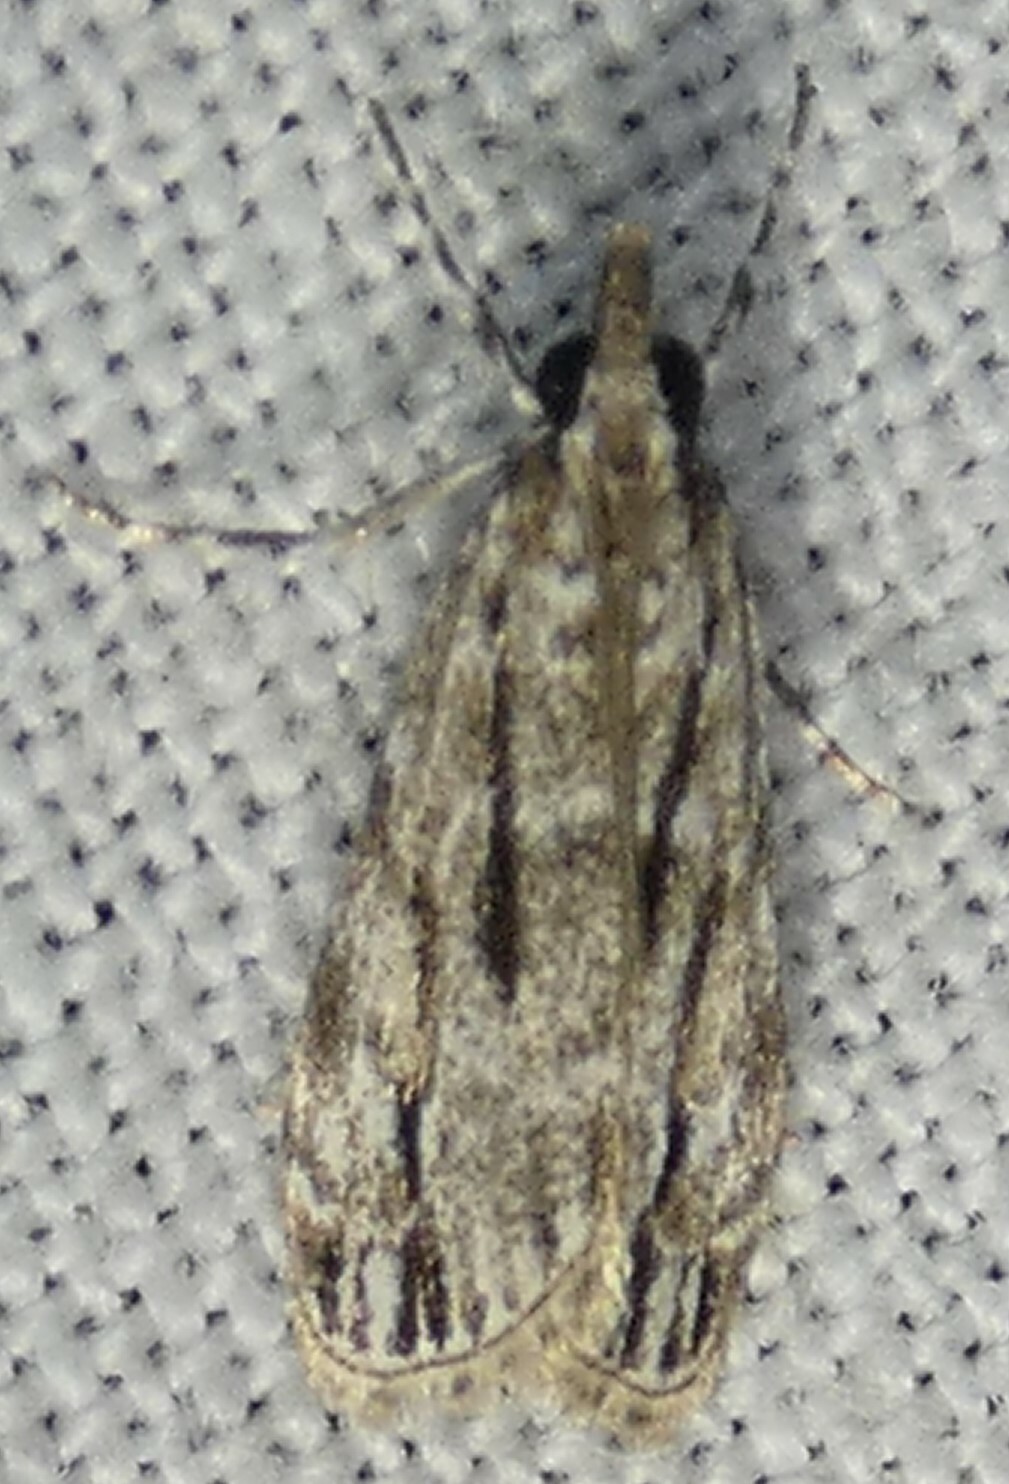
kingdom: Animalia
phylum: Arthropoda
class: Insecta
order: Lepidoptera
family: Crambidae
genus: Eudonia
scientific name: Eudonia strigalis
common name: Striped eudonia moth
